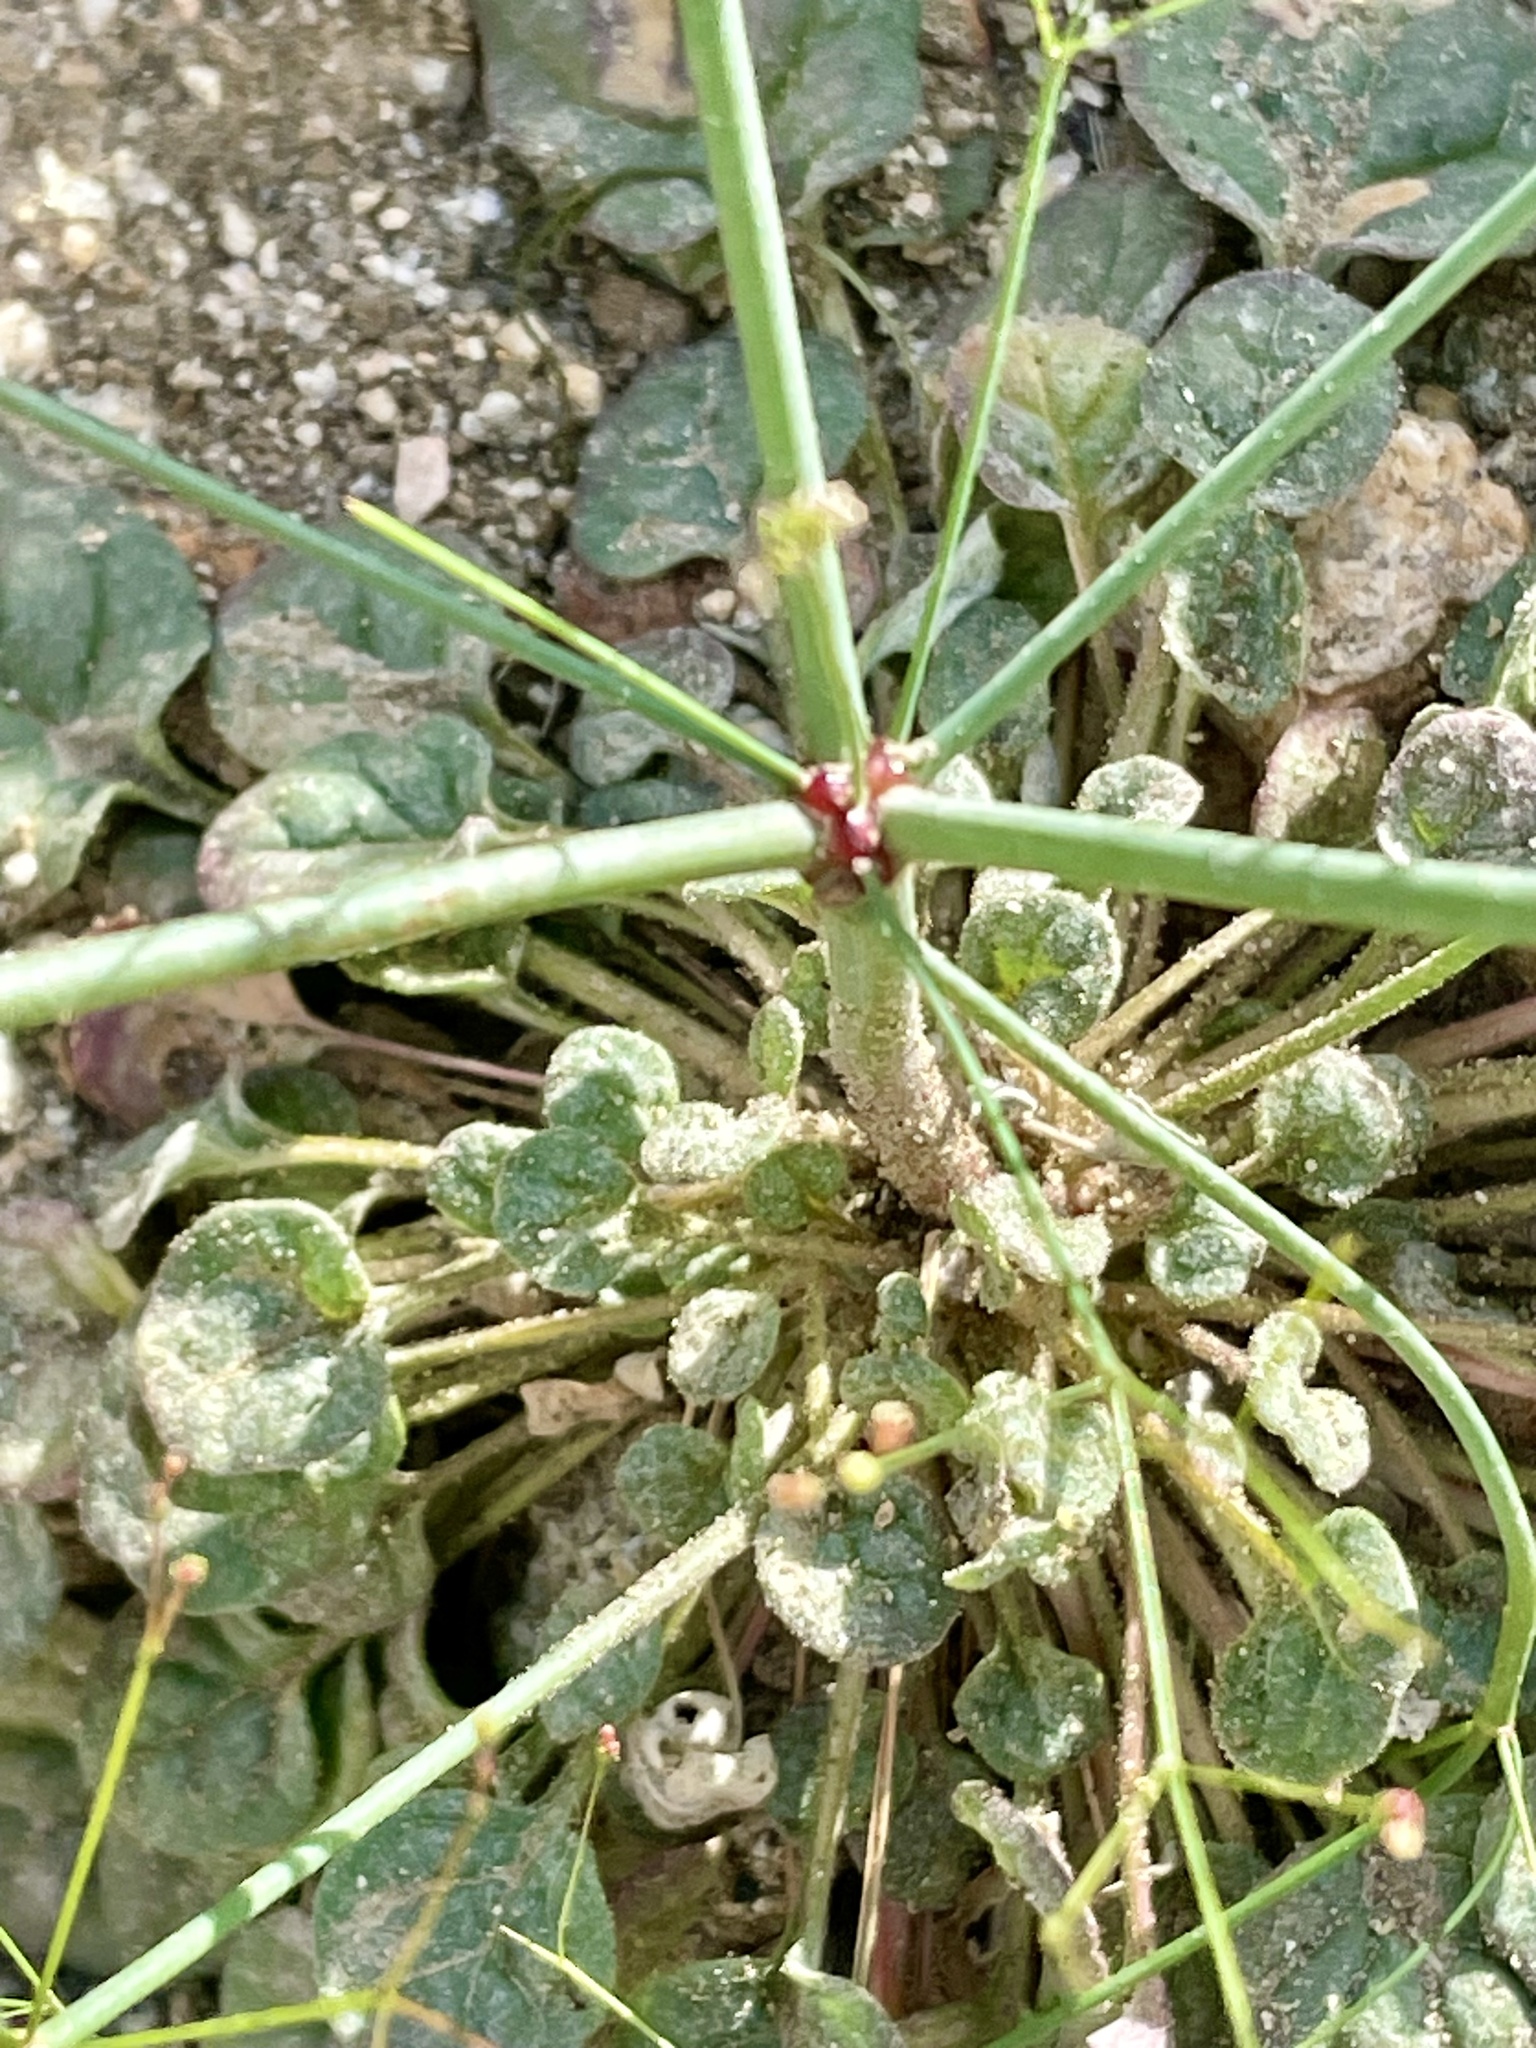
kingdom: Plantae
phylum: Tracheophyta
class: Magnoliopsida
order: Caryophyllales
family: Polygonaceae
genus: Eriogonum
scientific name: Eriogonum thomasii
